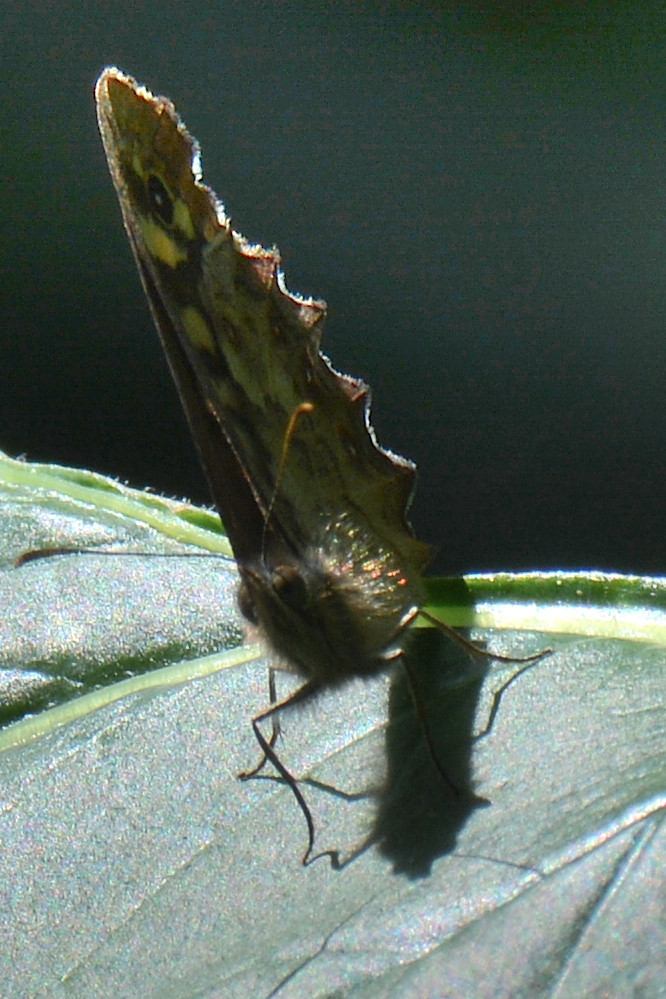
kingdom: Animalia
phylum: Arthropoda
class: Insecta
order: Lepidoptera
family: Nymphalidae
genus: Pararge
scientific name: Pararge aegeria
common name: Speckled wood
